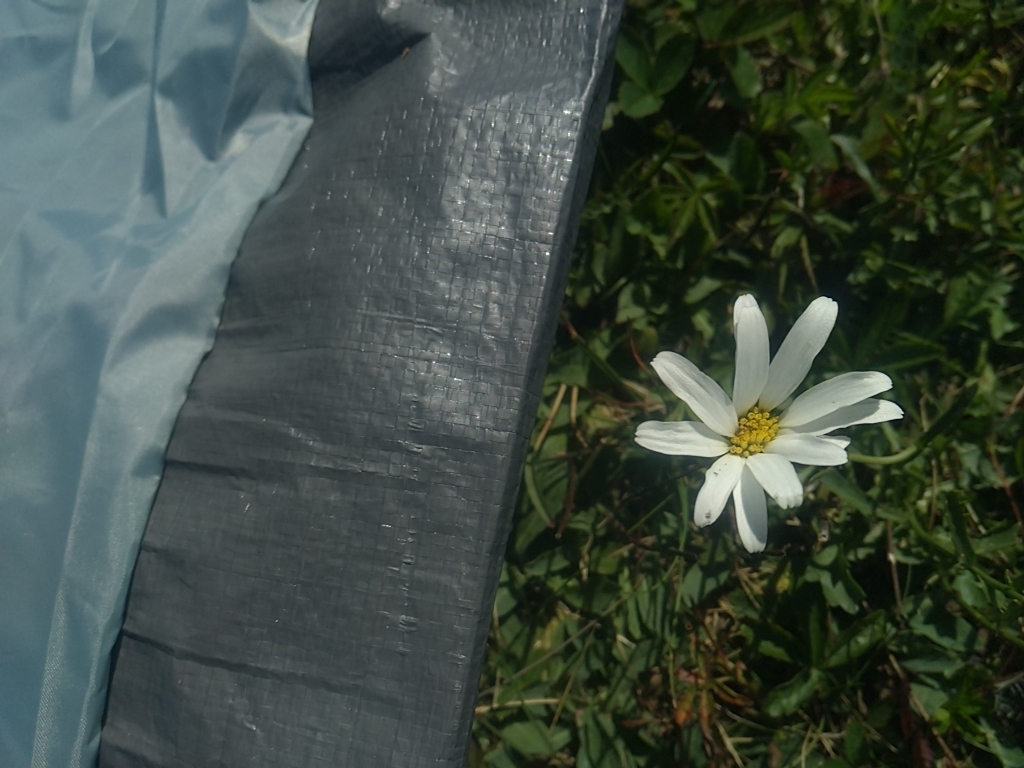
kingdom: Plantae
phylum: Tracheophyta
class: Magnoliopsida
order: Asterales
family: Asteraceae
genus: Leucanthemum
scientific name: Leucanthemum vulgare
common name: Oxeye daisy
